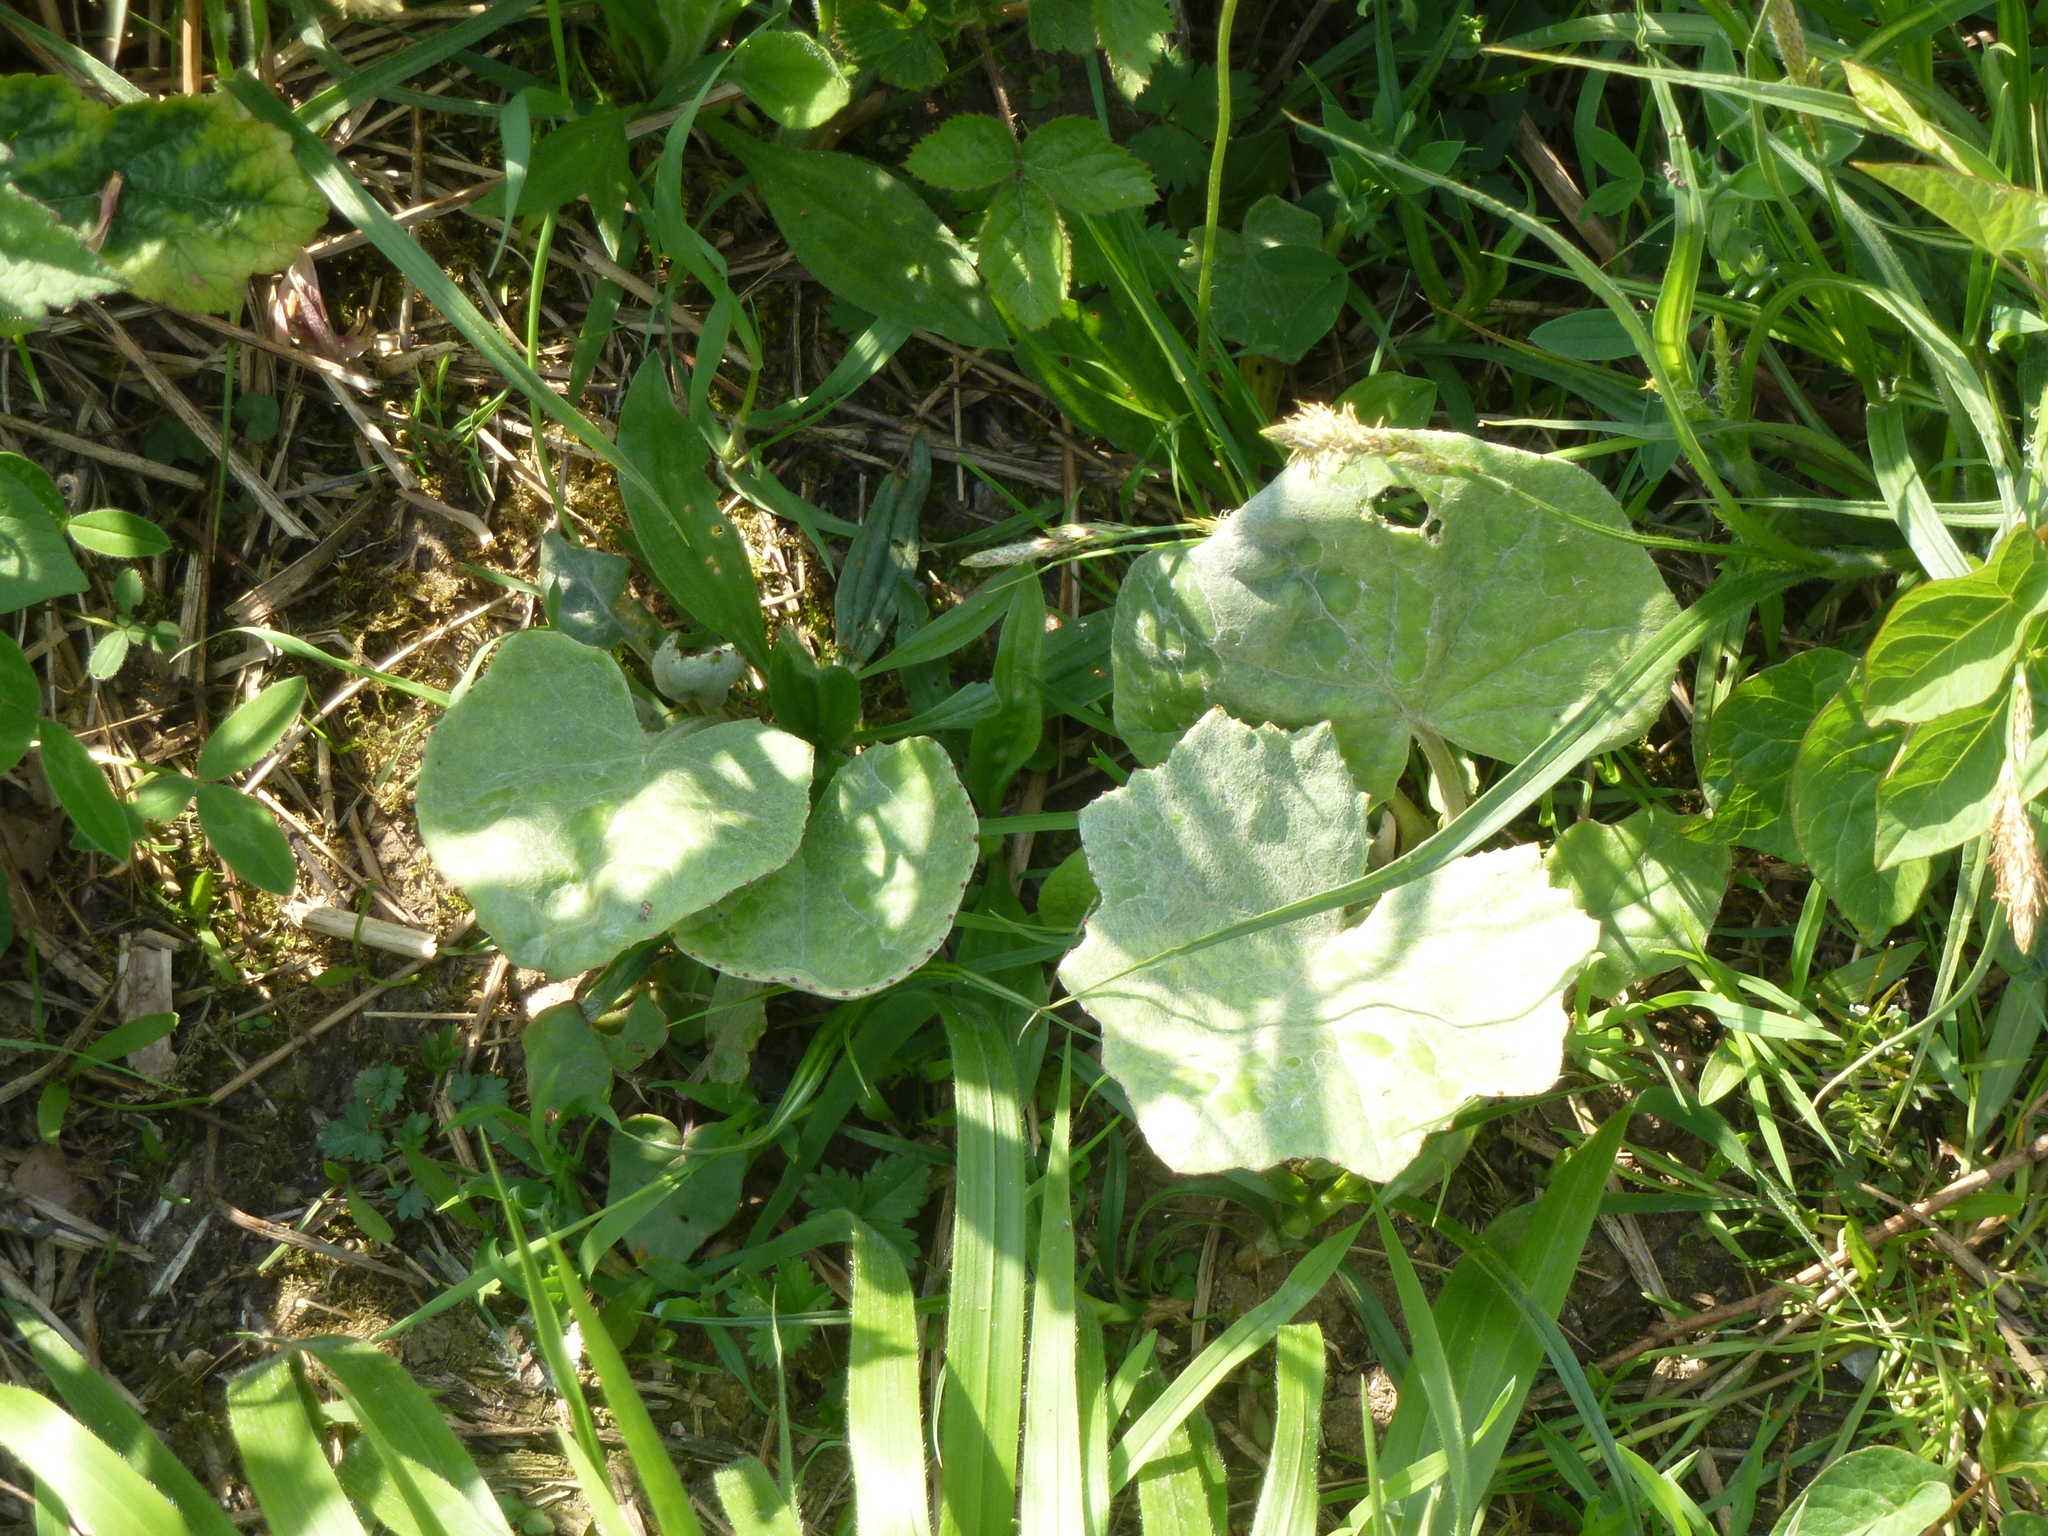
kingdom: Plantae
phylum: Tracheophyta
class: Magnoliopsida
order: Asterales
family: Asteraceae
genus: Tussilago
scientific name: Tussilago farfara
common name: Coltsfoot
